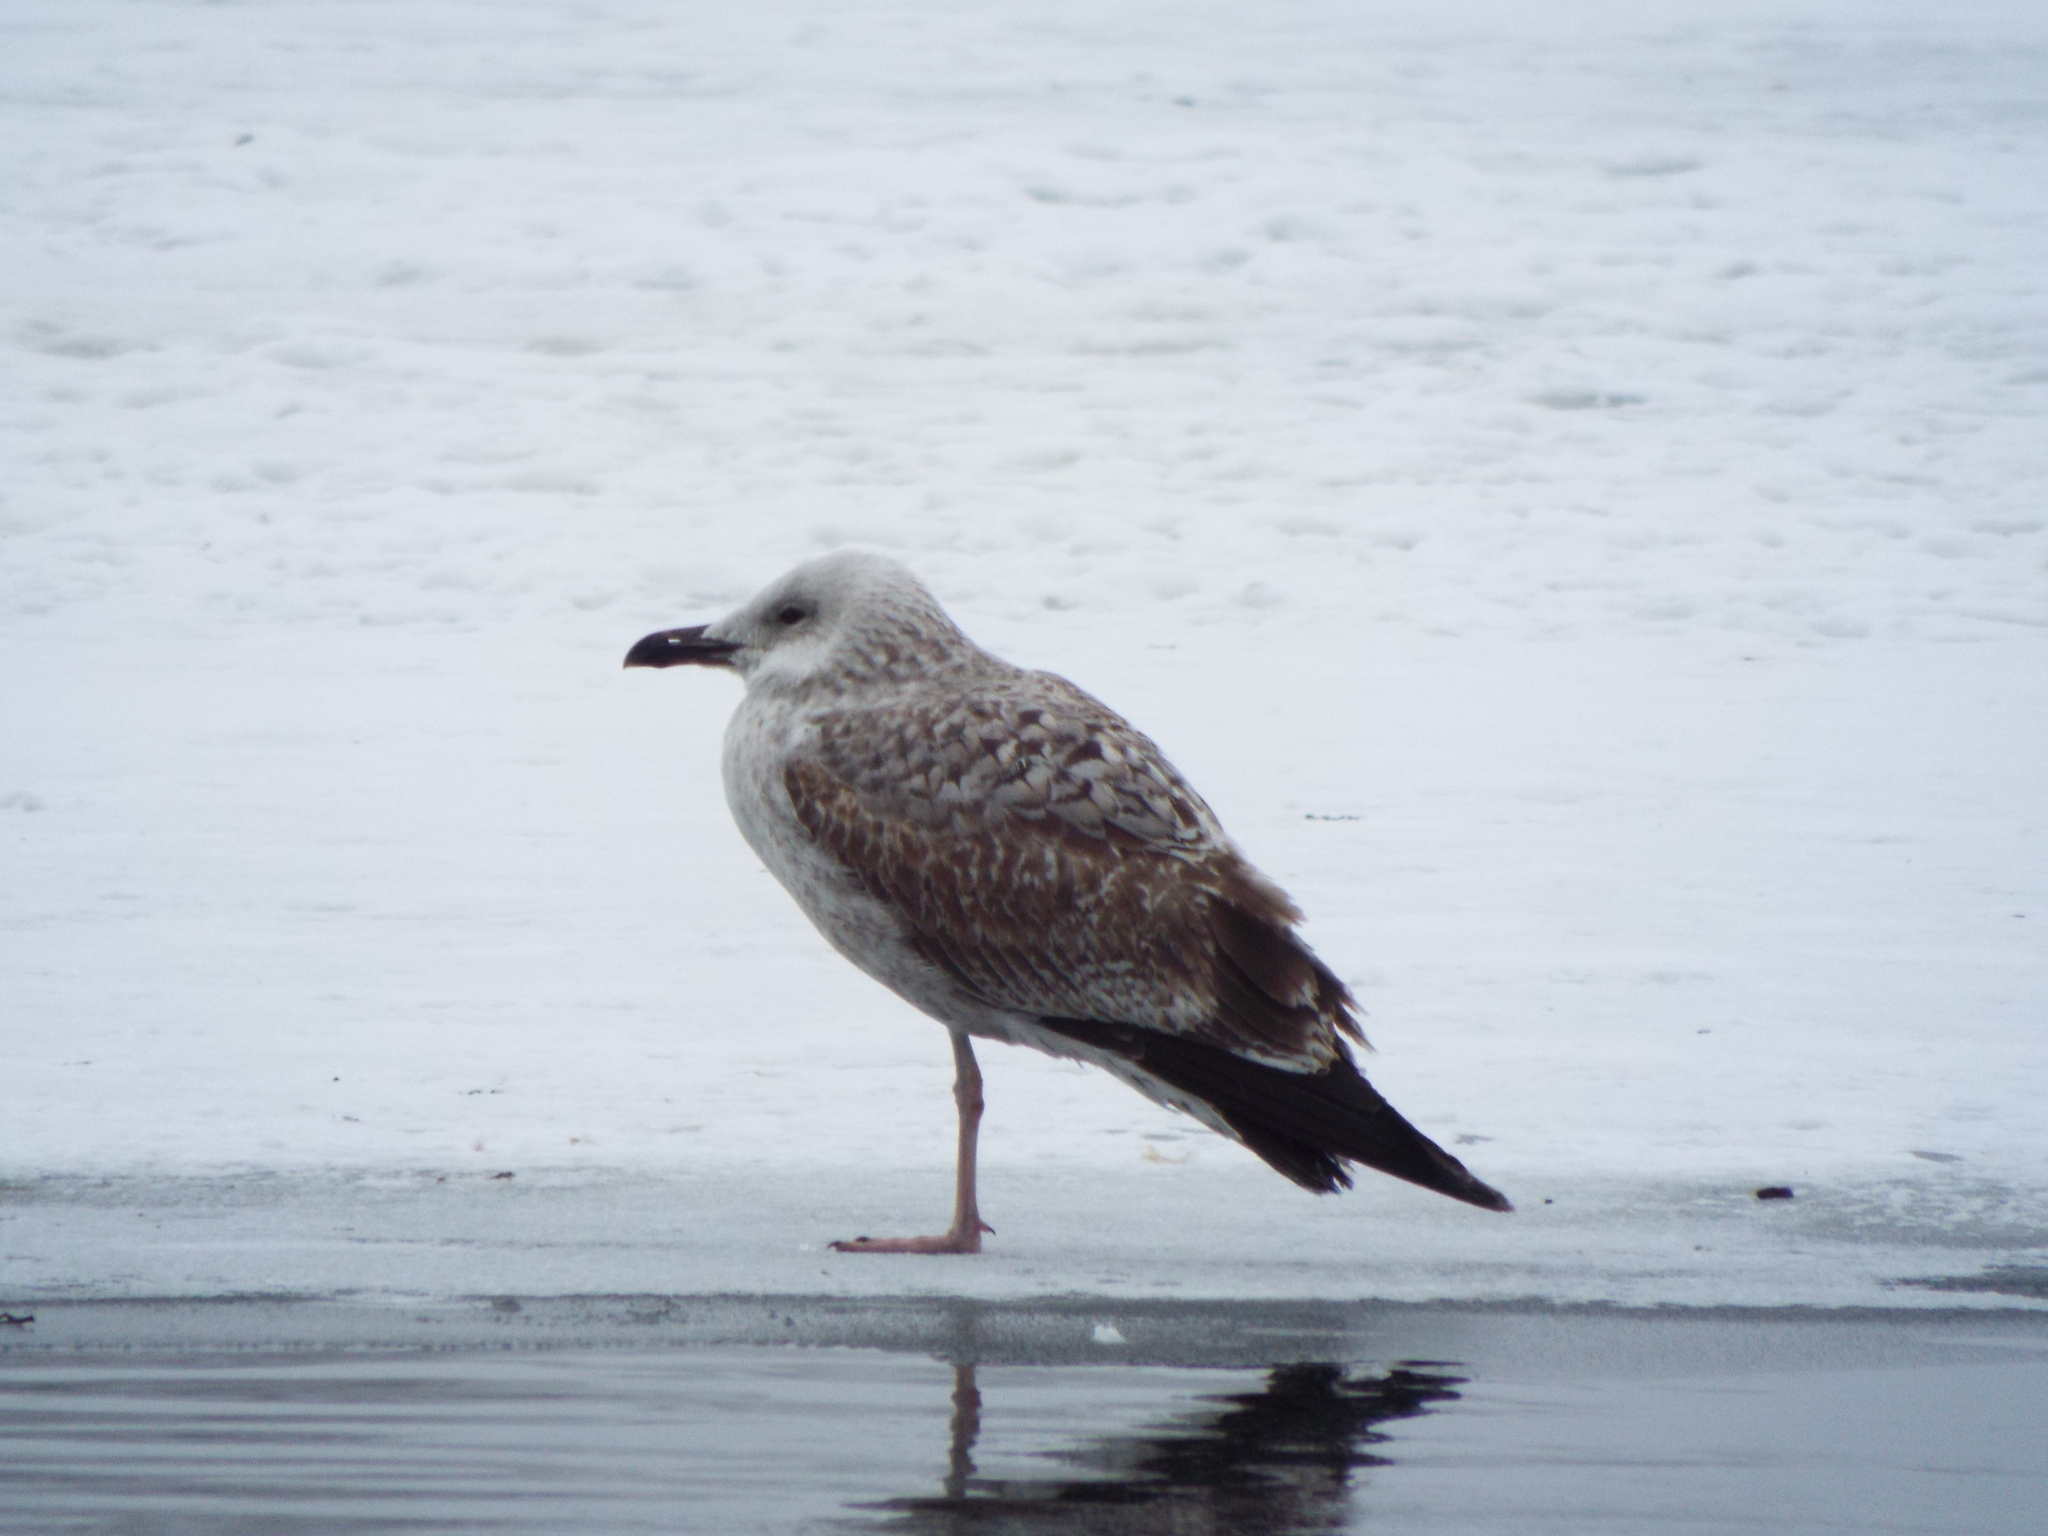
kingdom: Animalia
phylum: Chordata
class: Aves
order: Charadriiformes
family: Laridae
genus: Larus
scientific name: Larus cachinnans
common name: Caspian gull
